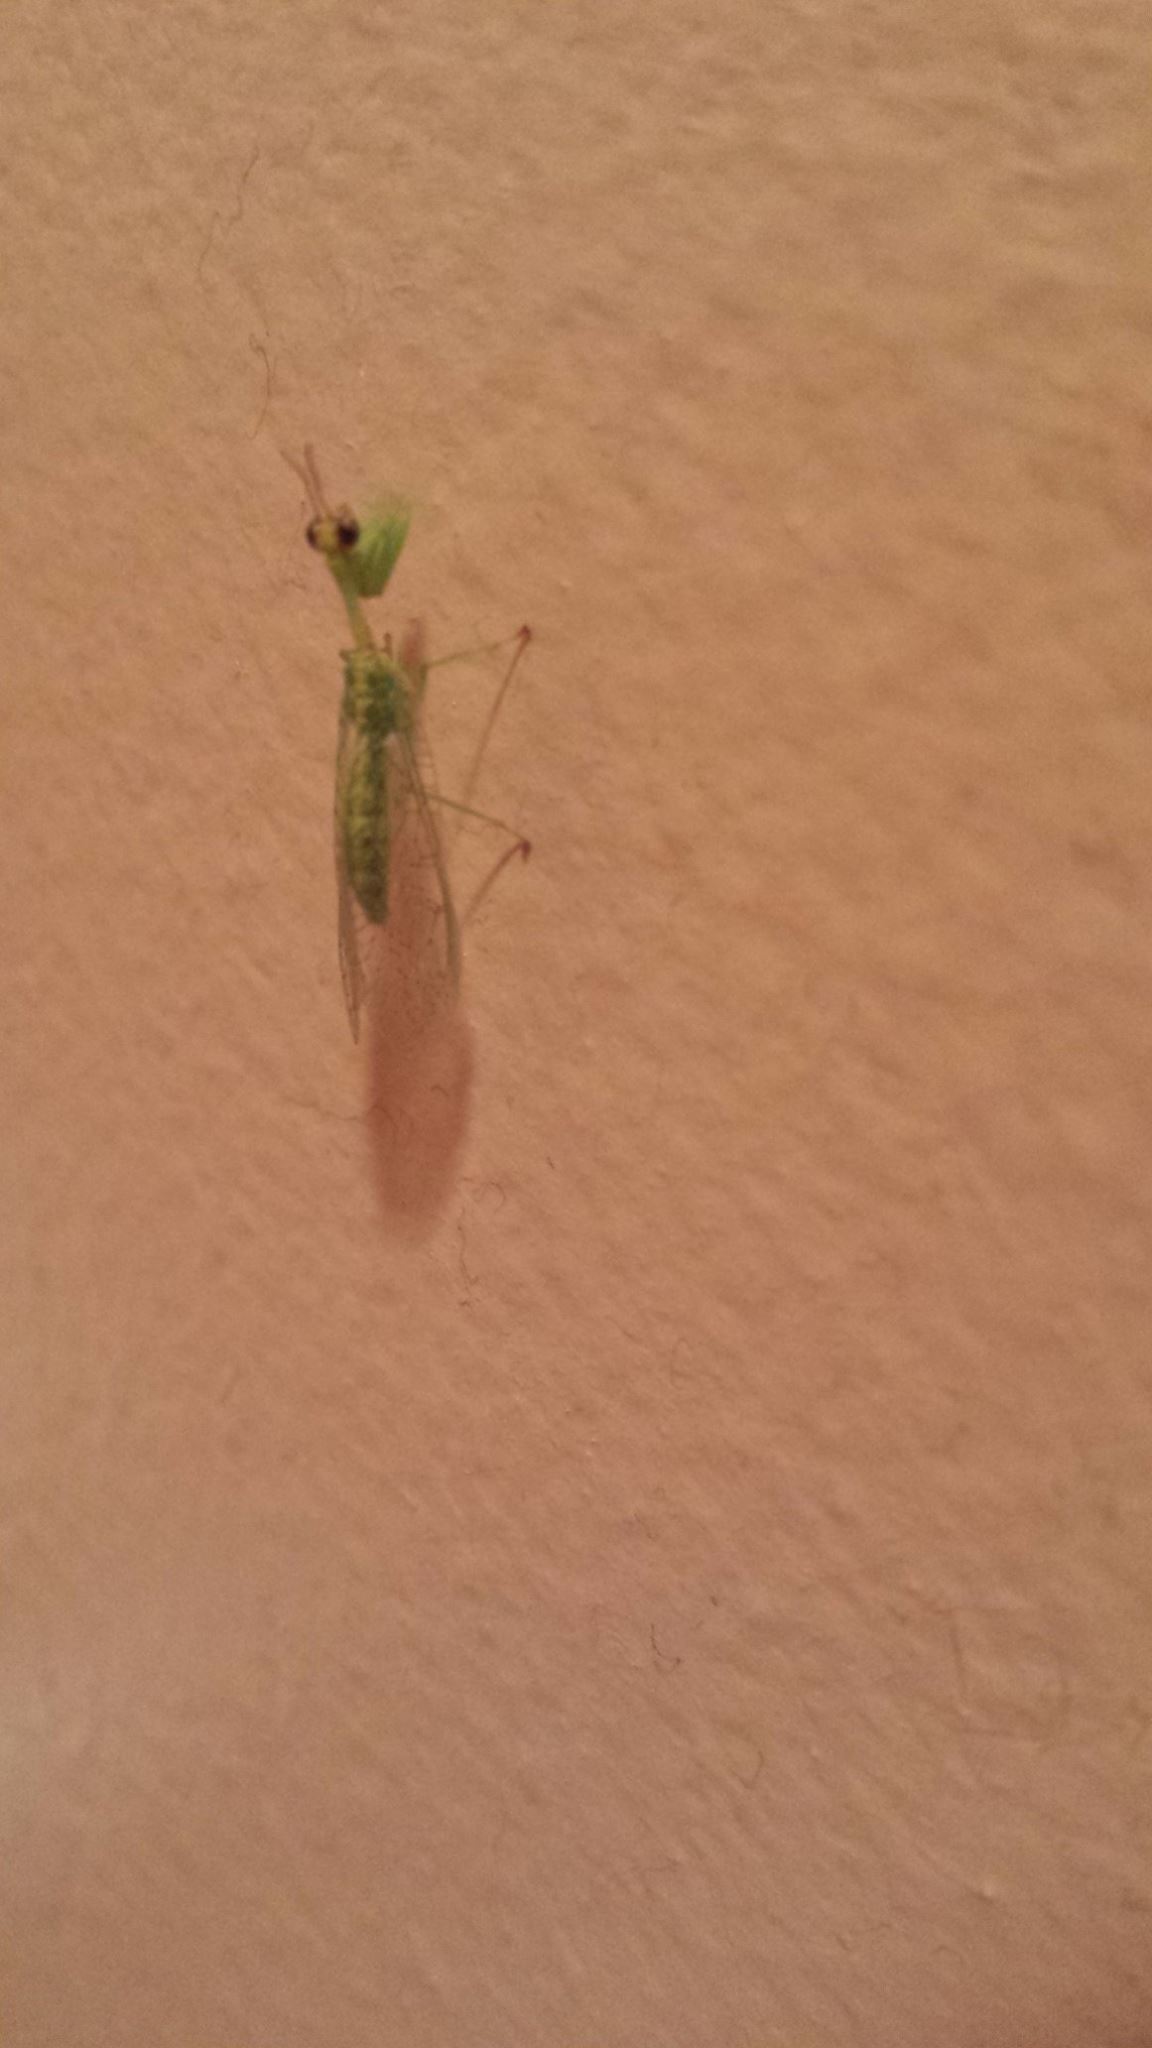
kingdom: Animalia
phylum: Arthropoda
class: Insecta
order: Neuroptera
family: Mantispidae
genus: Zeugomantispa
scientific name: Zeugomantispa minuta
